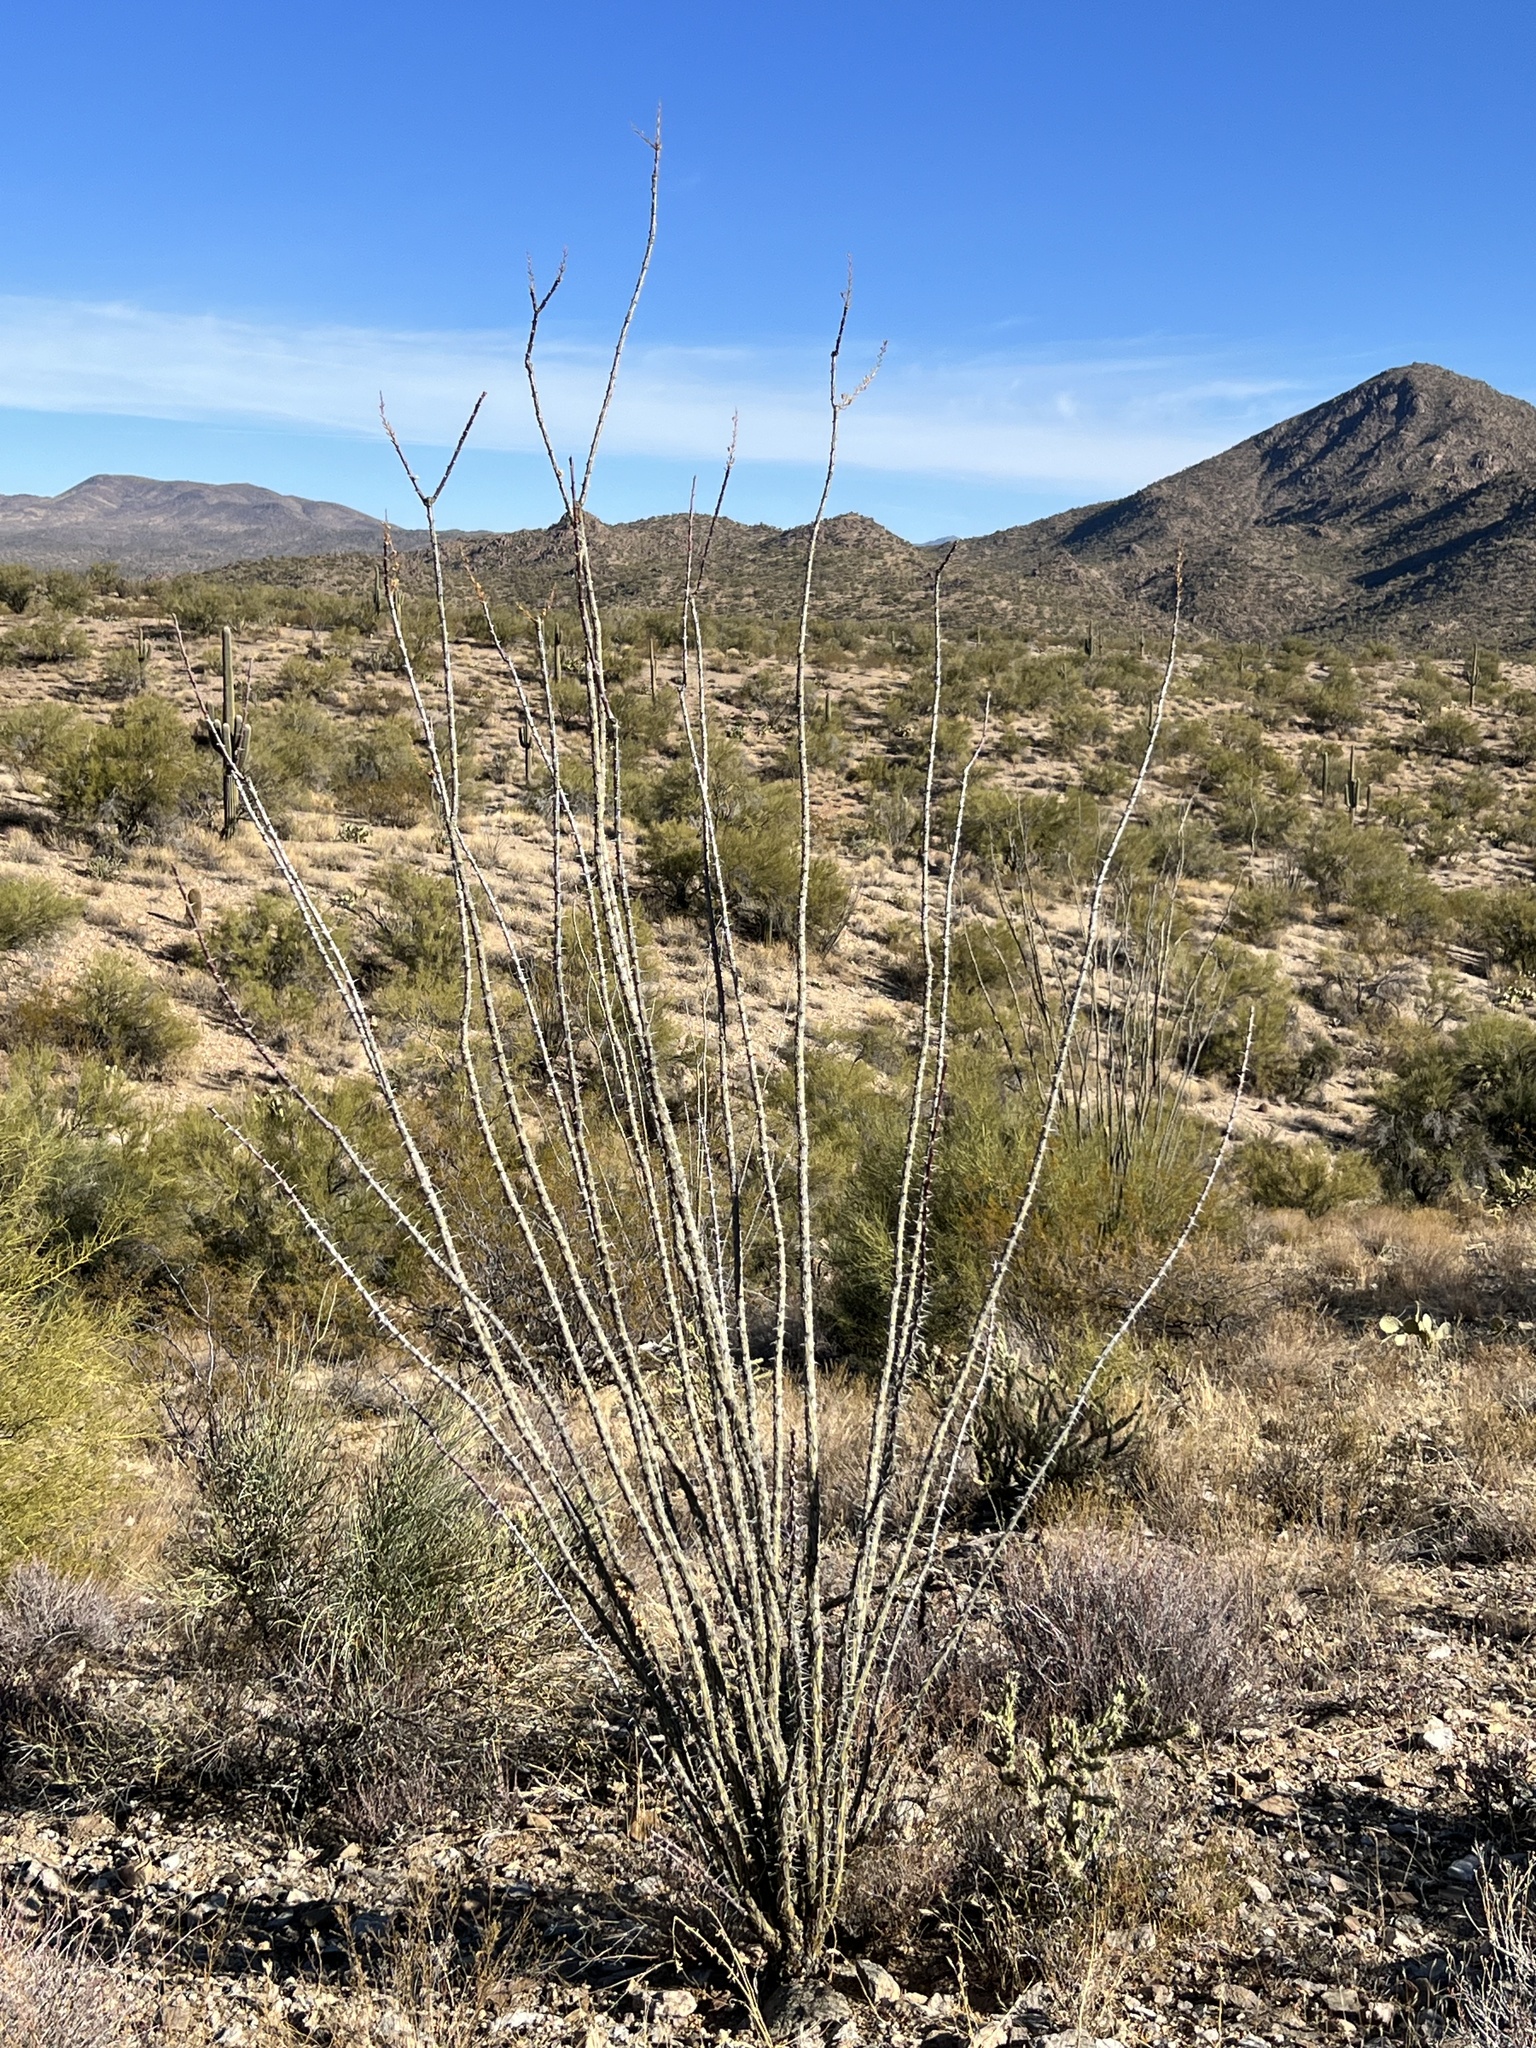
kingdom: Plantae
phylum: Tracheophyta
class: Magnoliopsida
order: Ericales
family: Fouquieriaceae
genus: Fouquieria
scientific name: Fouquieria splendens
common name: Vine-cactus
